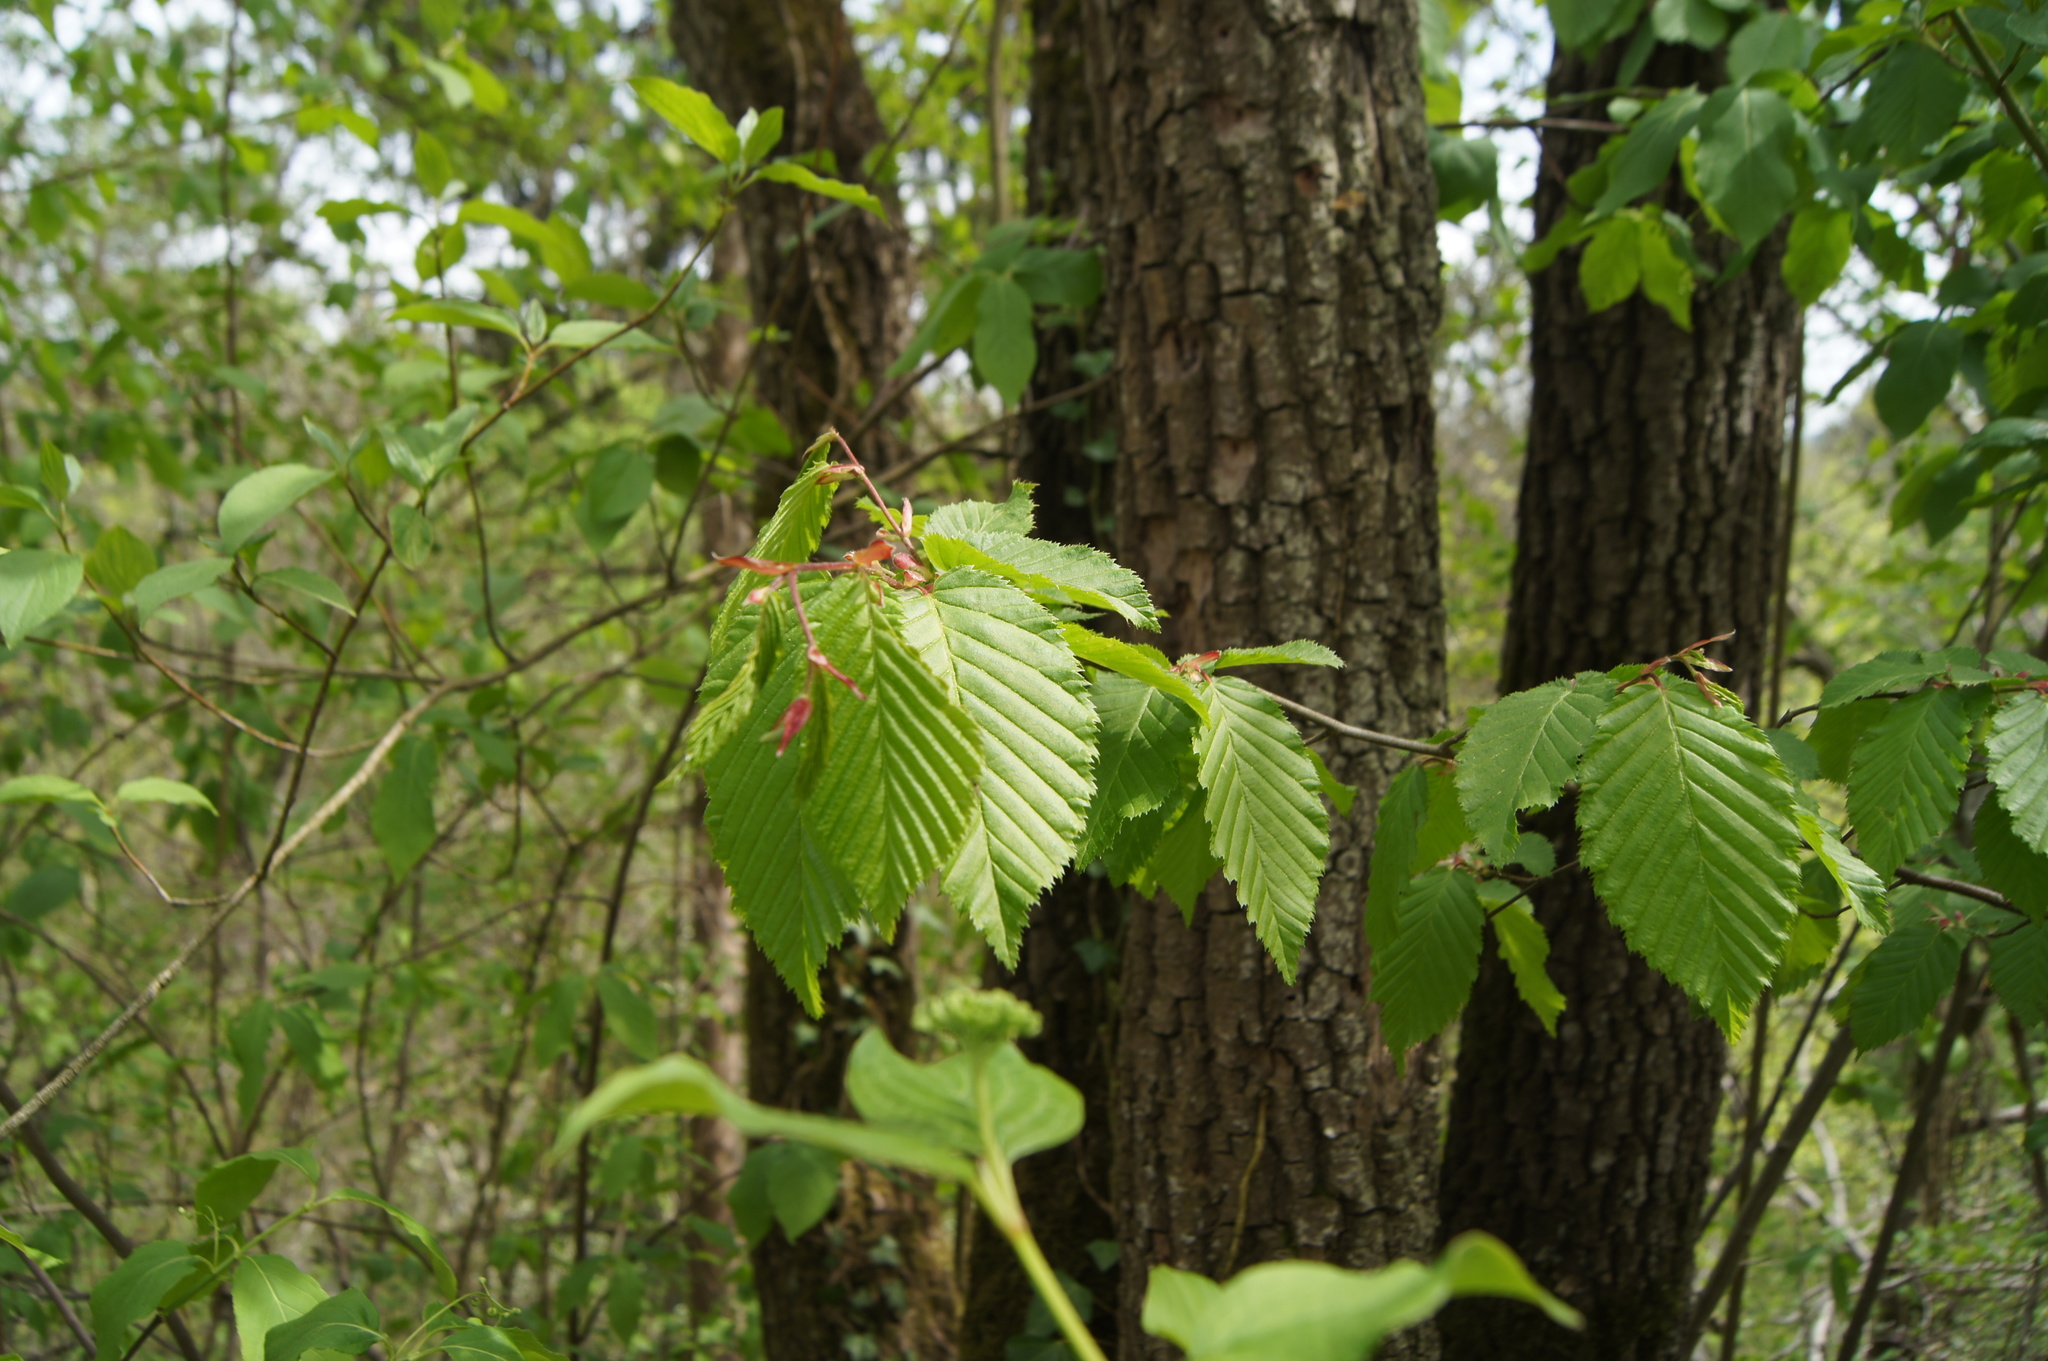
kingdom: Plantae
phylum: Tracheophyta
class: Magnoliopsida
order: Fagales
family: Betulaceae
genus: Carpinus
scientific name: Carpinus betulus
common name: Hornbeam
